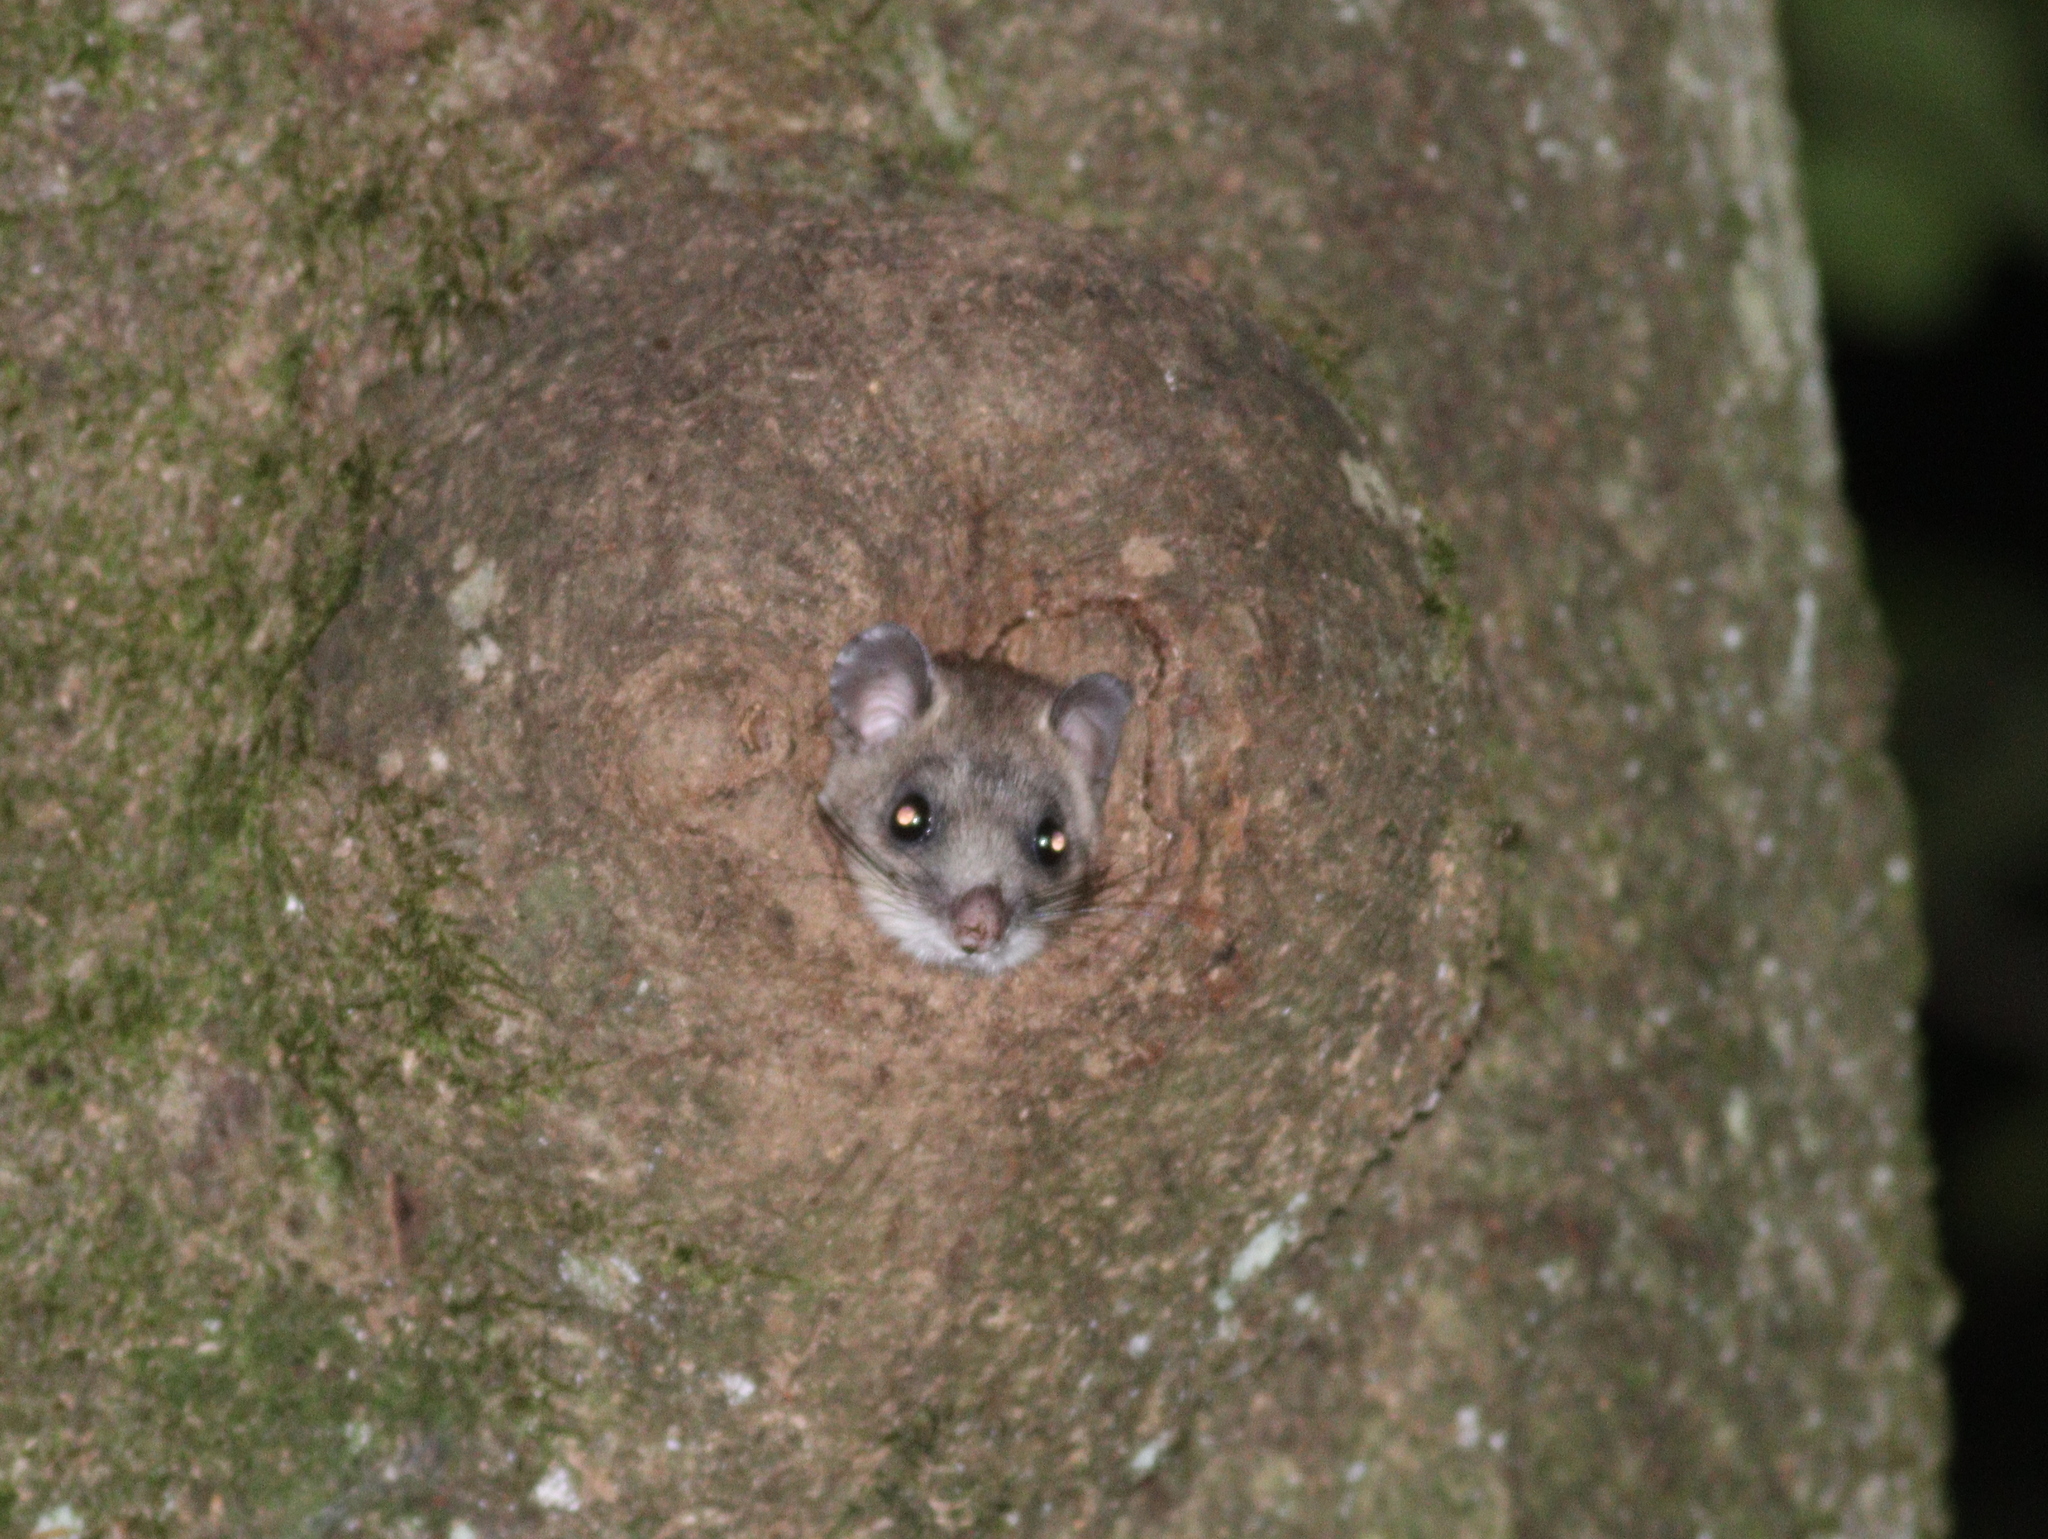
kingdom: Animalia
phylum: Chordata
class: Mammalia
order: Rodentia
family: Gliridae
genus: Glis
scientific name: Glis glis
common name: Fat dormouse
